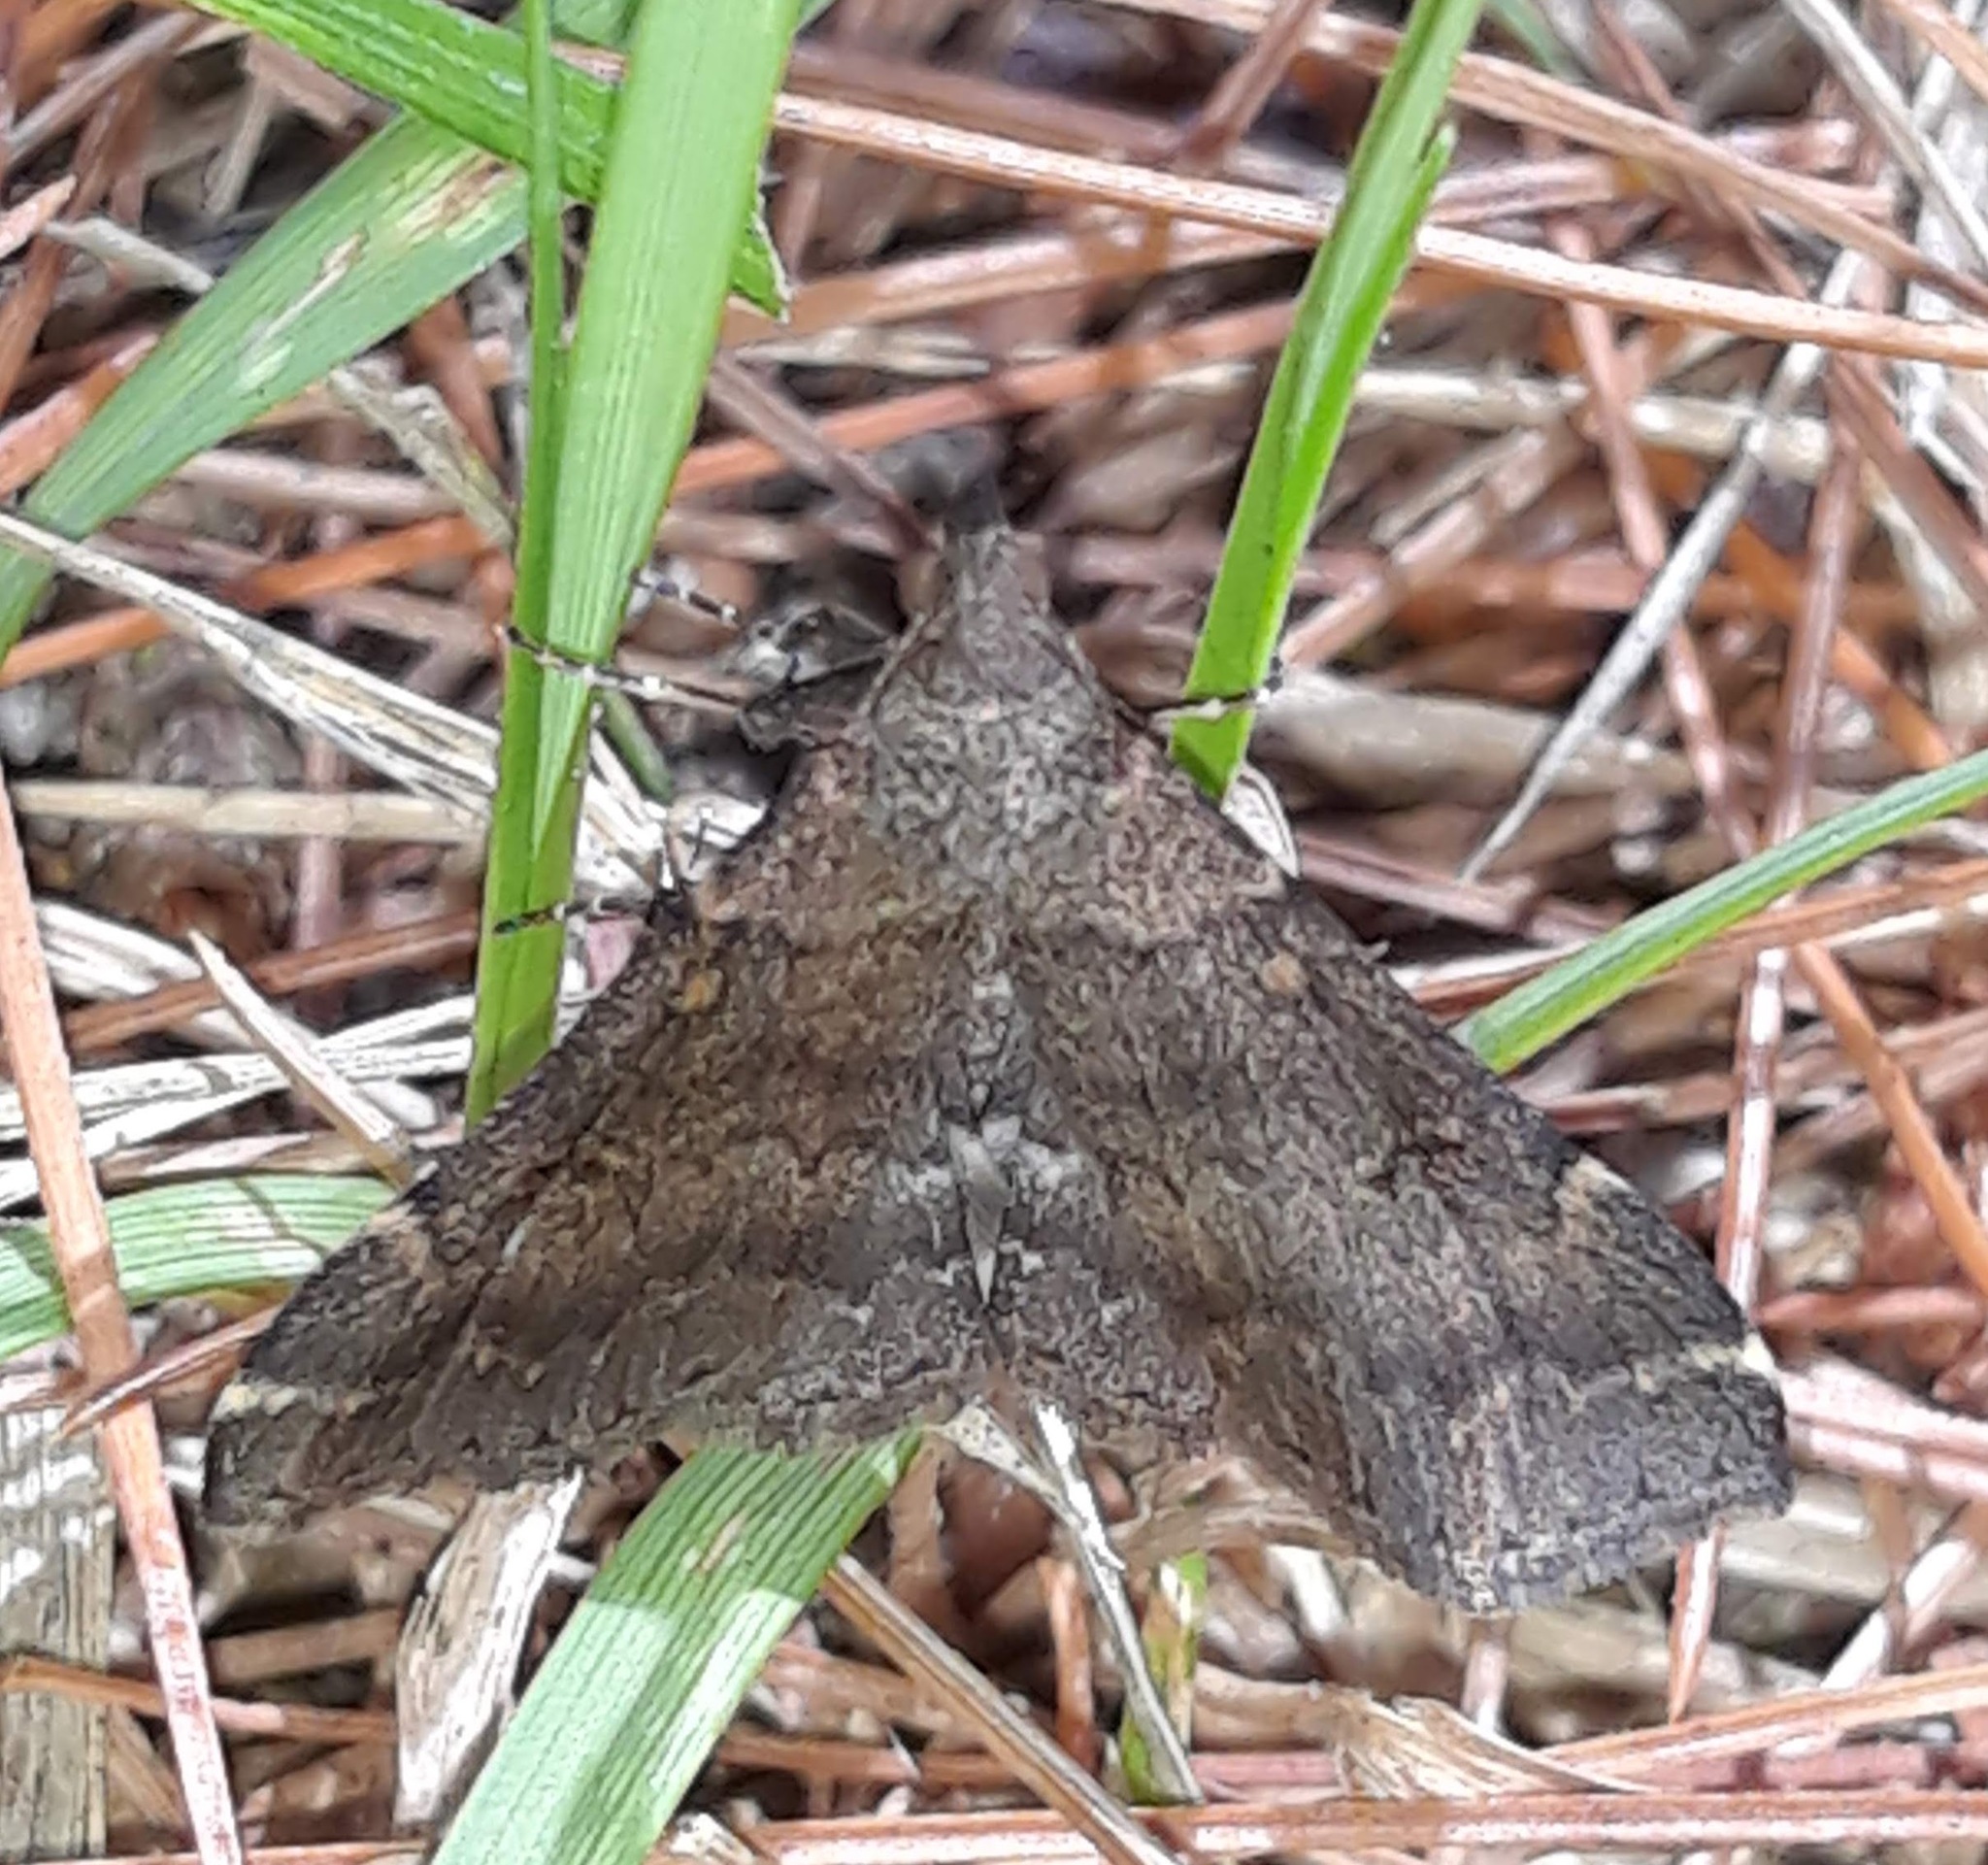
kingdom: Animalia
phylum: Arthropoda
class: Insecta
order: Lepidoptera
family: Erebidae
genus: Renia
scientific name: Renia factiosalis
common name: Sociable renia moth
